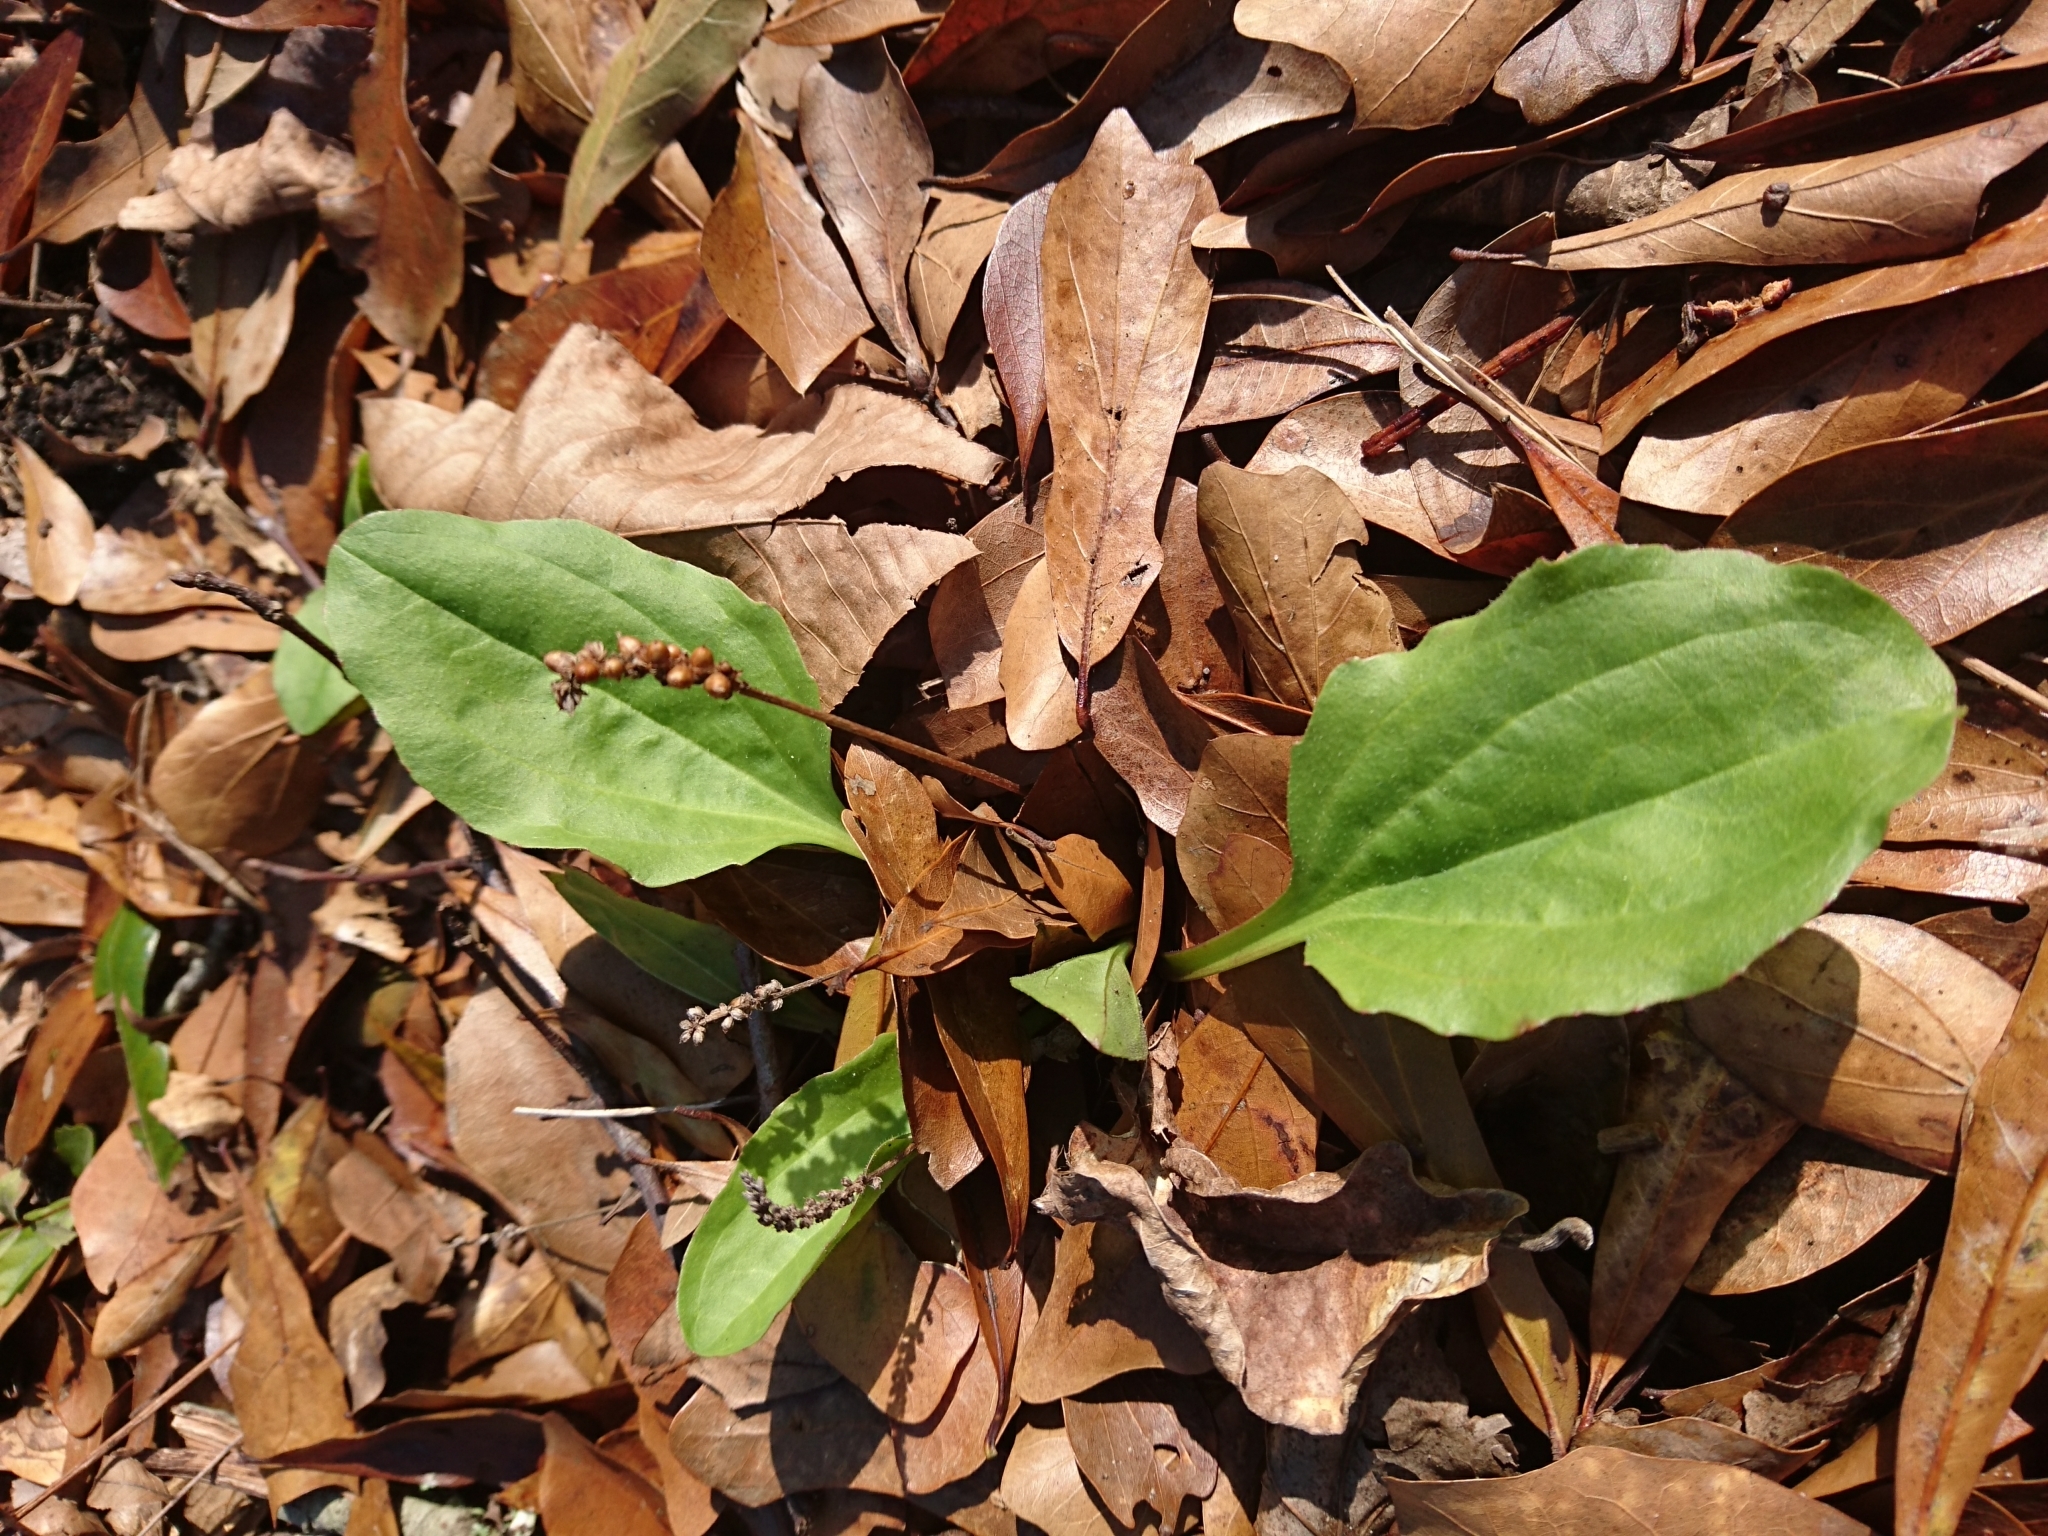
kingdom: Plantae
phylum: Tracheophyta
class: Magnoliopsida
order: Lamiales
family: Plantaginaceae
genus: Plantago
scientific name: Plantago major
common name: Common plantain
